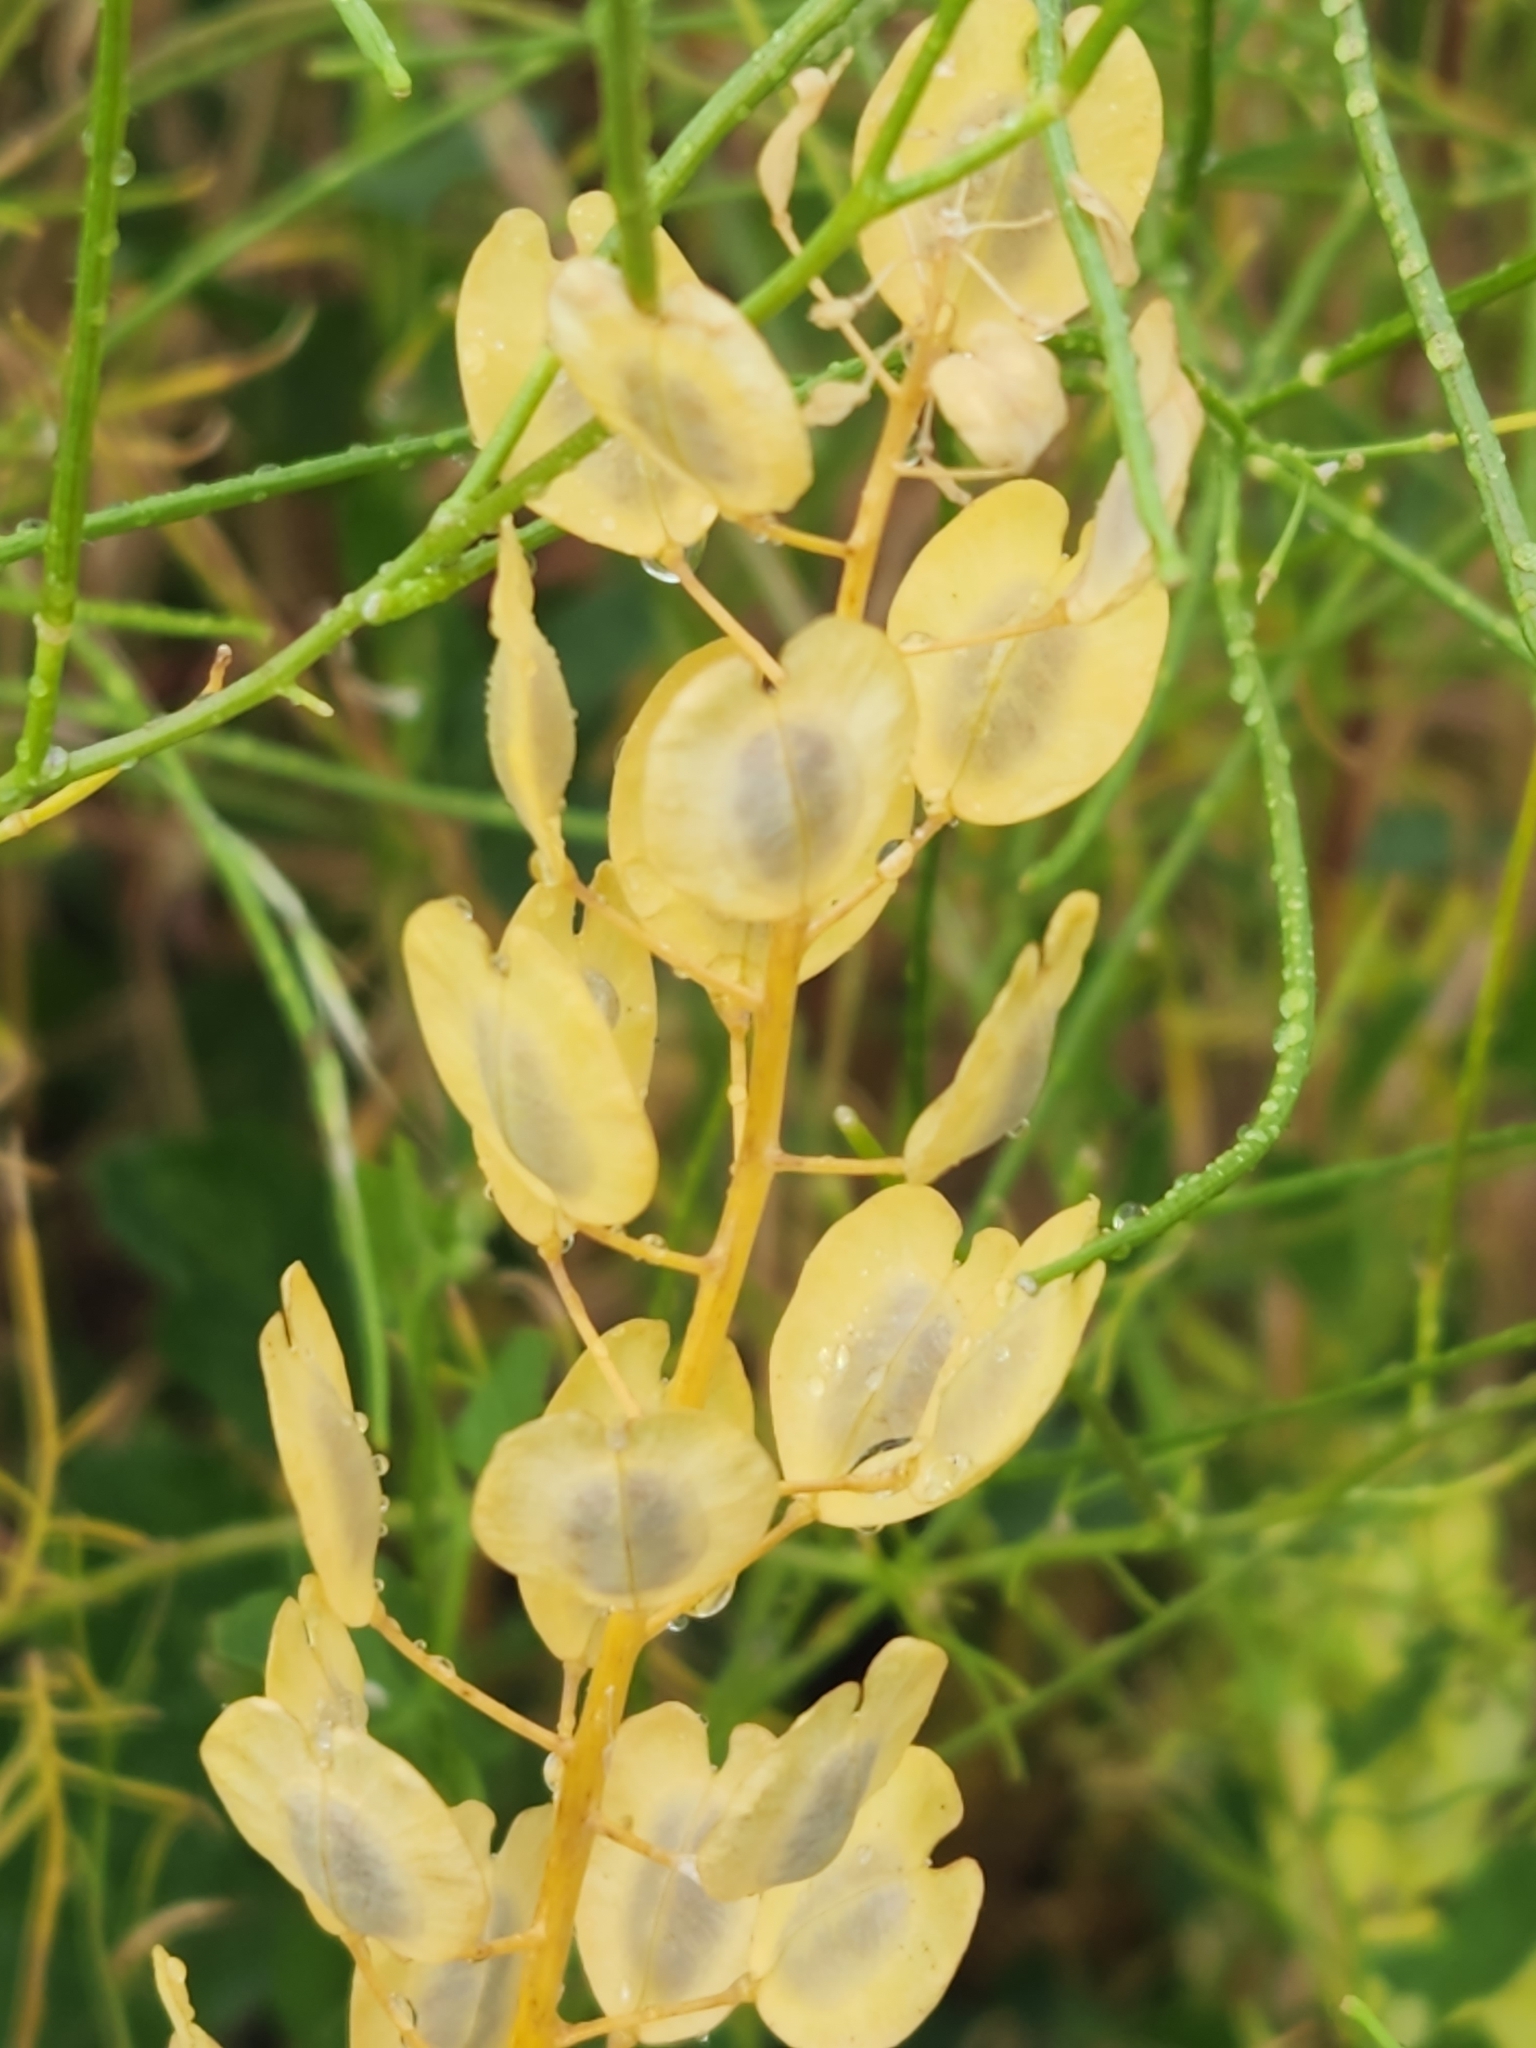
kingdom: Plantae
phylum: Tracheophyta
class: Magnoliopsida
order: Brassicales
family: Brassicaceae
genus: Thlaspi
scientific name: Thlaspi arvense
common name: Field pennycress
